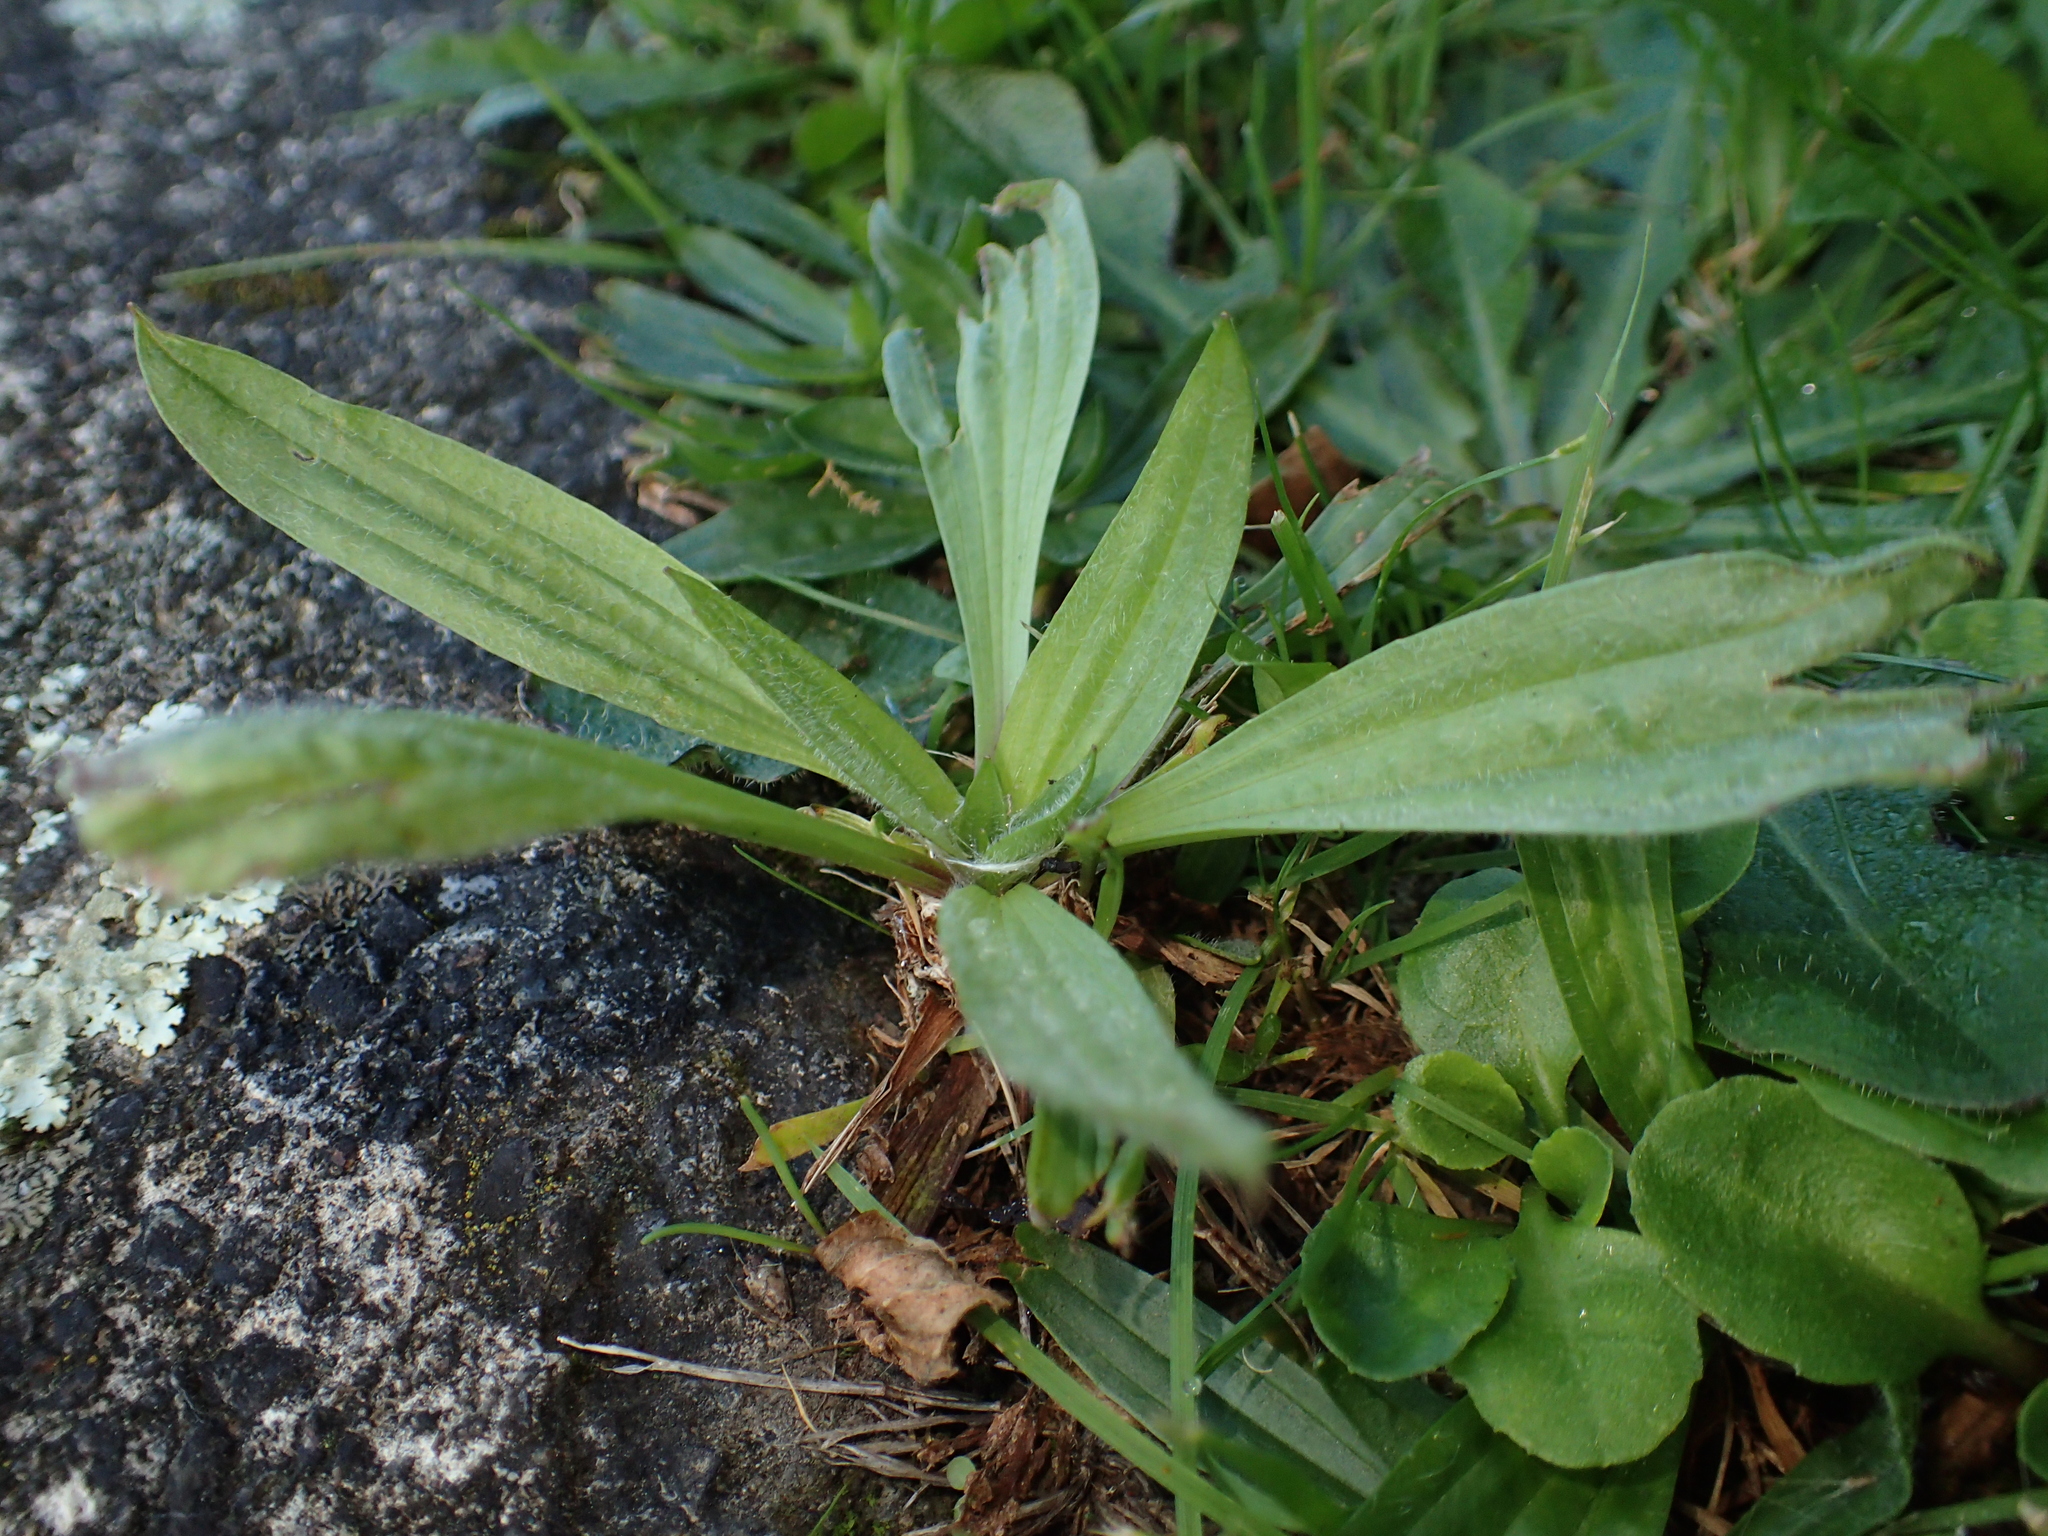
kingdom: Plantae
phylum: Tracheophyta
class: Magnoliopsida
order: Lamiales
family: Plantaginaceae
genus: Plantago
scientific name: Plantago lanceolata
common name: Ribwort plantain
